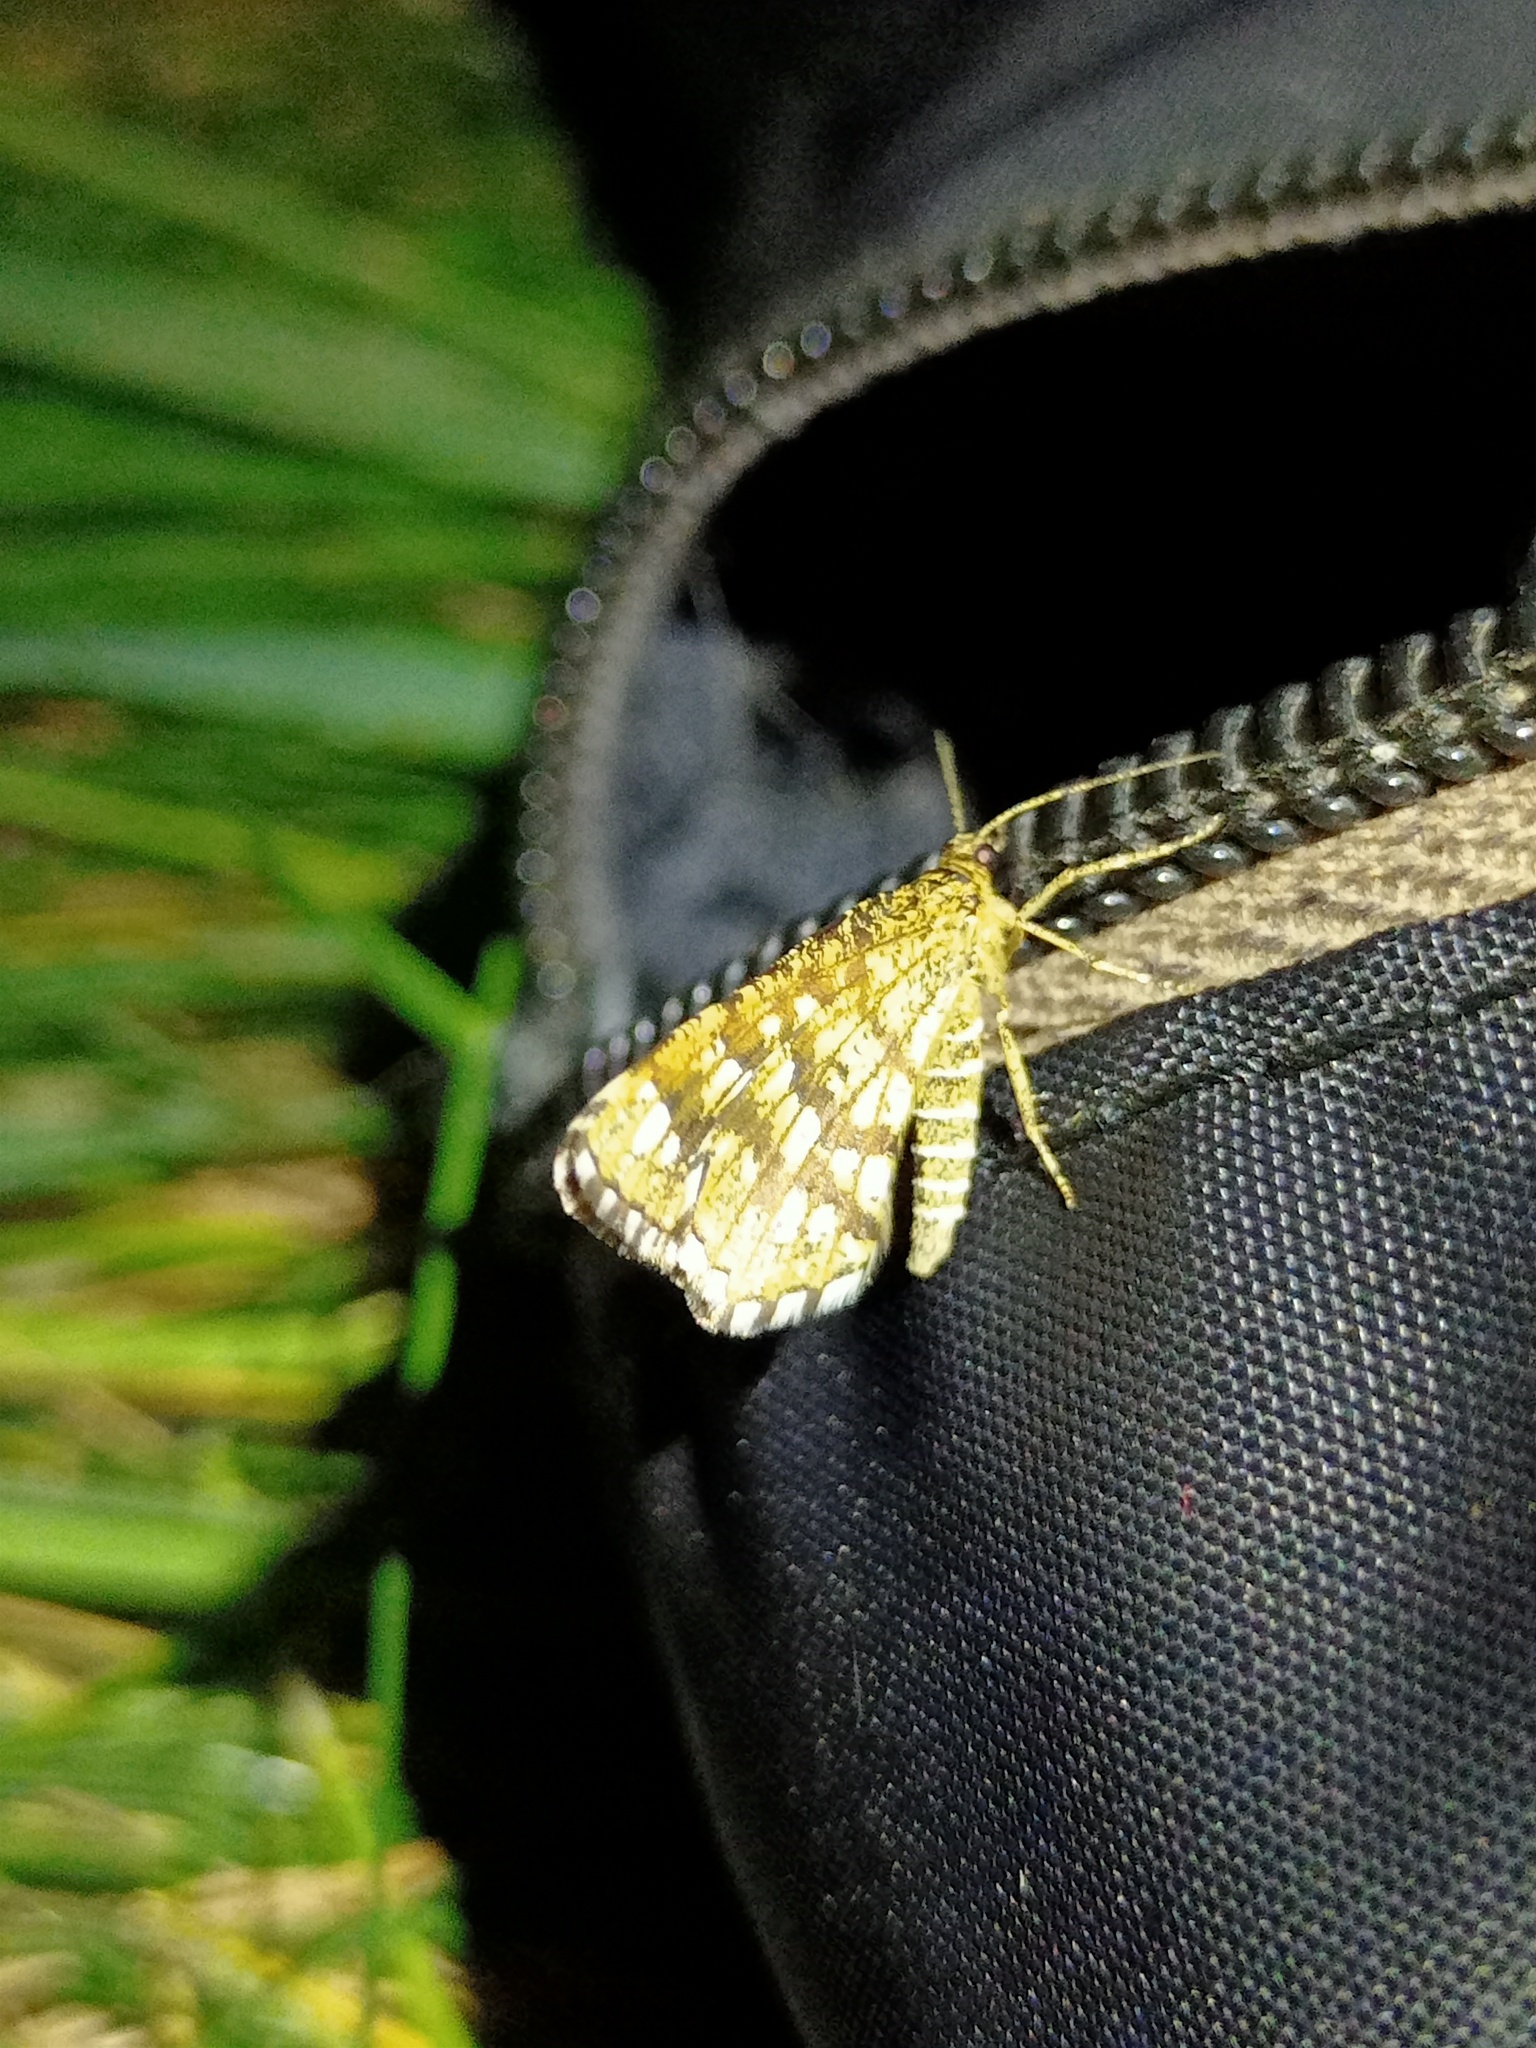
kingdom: Animalia
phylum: Arthropoda
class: Insecta
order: Lepidoptera
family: Geometridae
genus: Chiasmia
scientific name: Chiasmia clathrata
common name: Latticed heath
